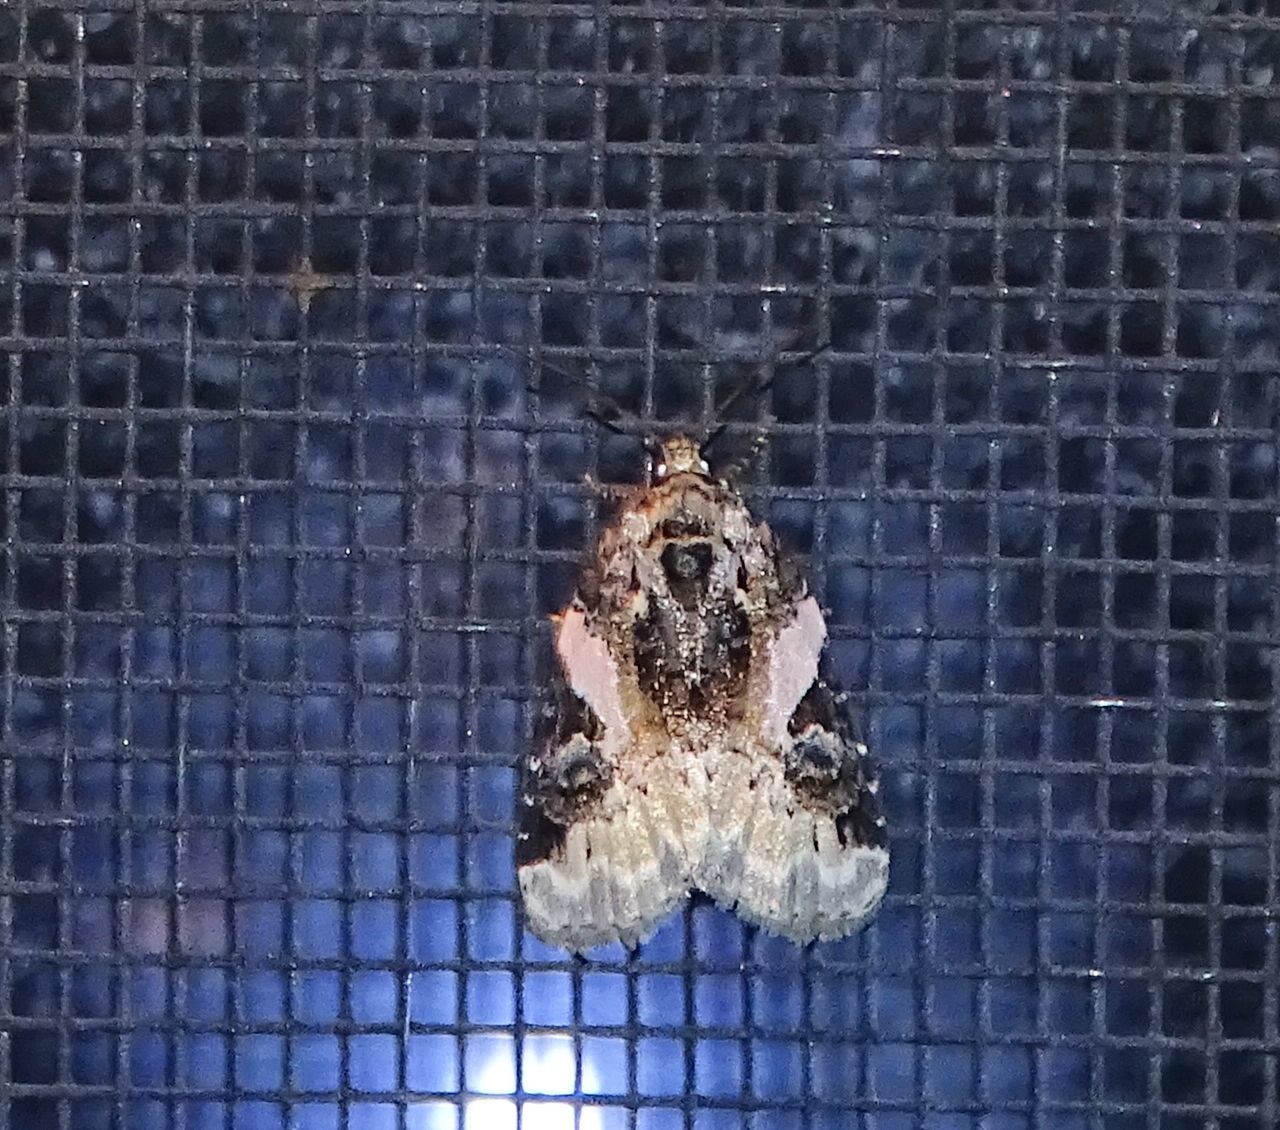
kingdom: Animalia
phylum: Arthropoda
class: Insecta
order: Lepidoptera
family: Noctuidae
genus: Pseudeustrotia
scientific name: Pseudeustrotia carneola
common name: Pink-barred lithacodia moth
